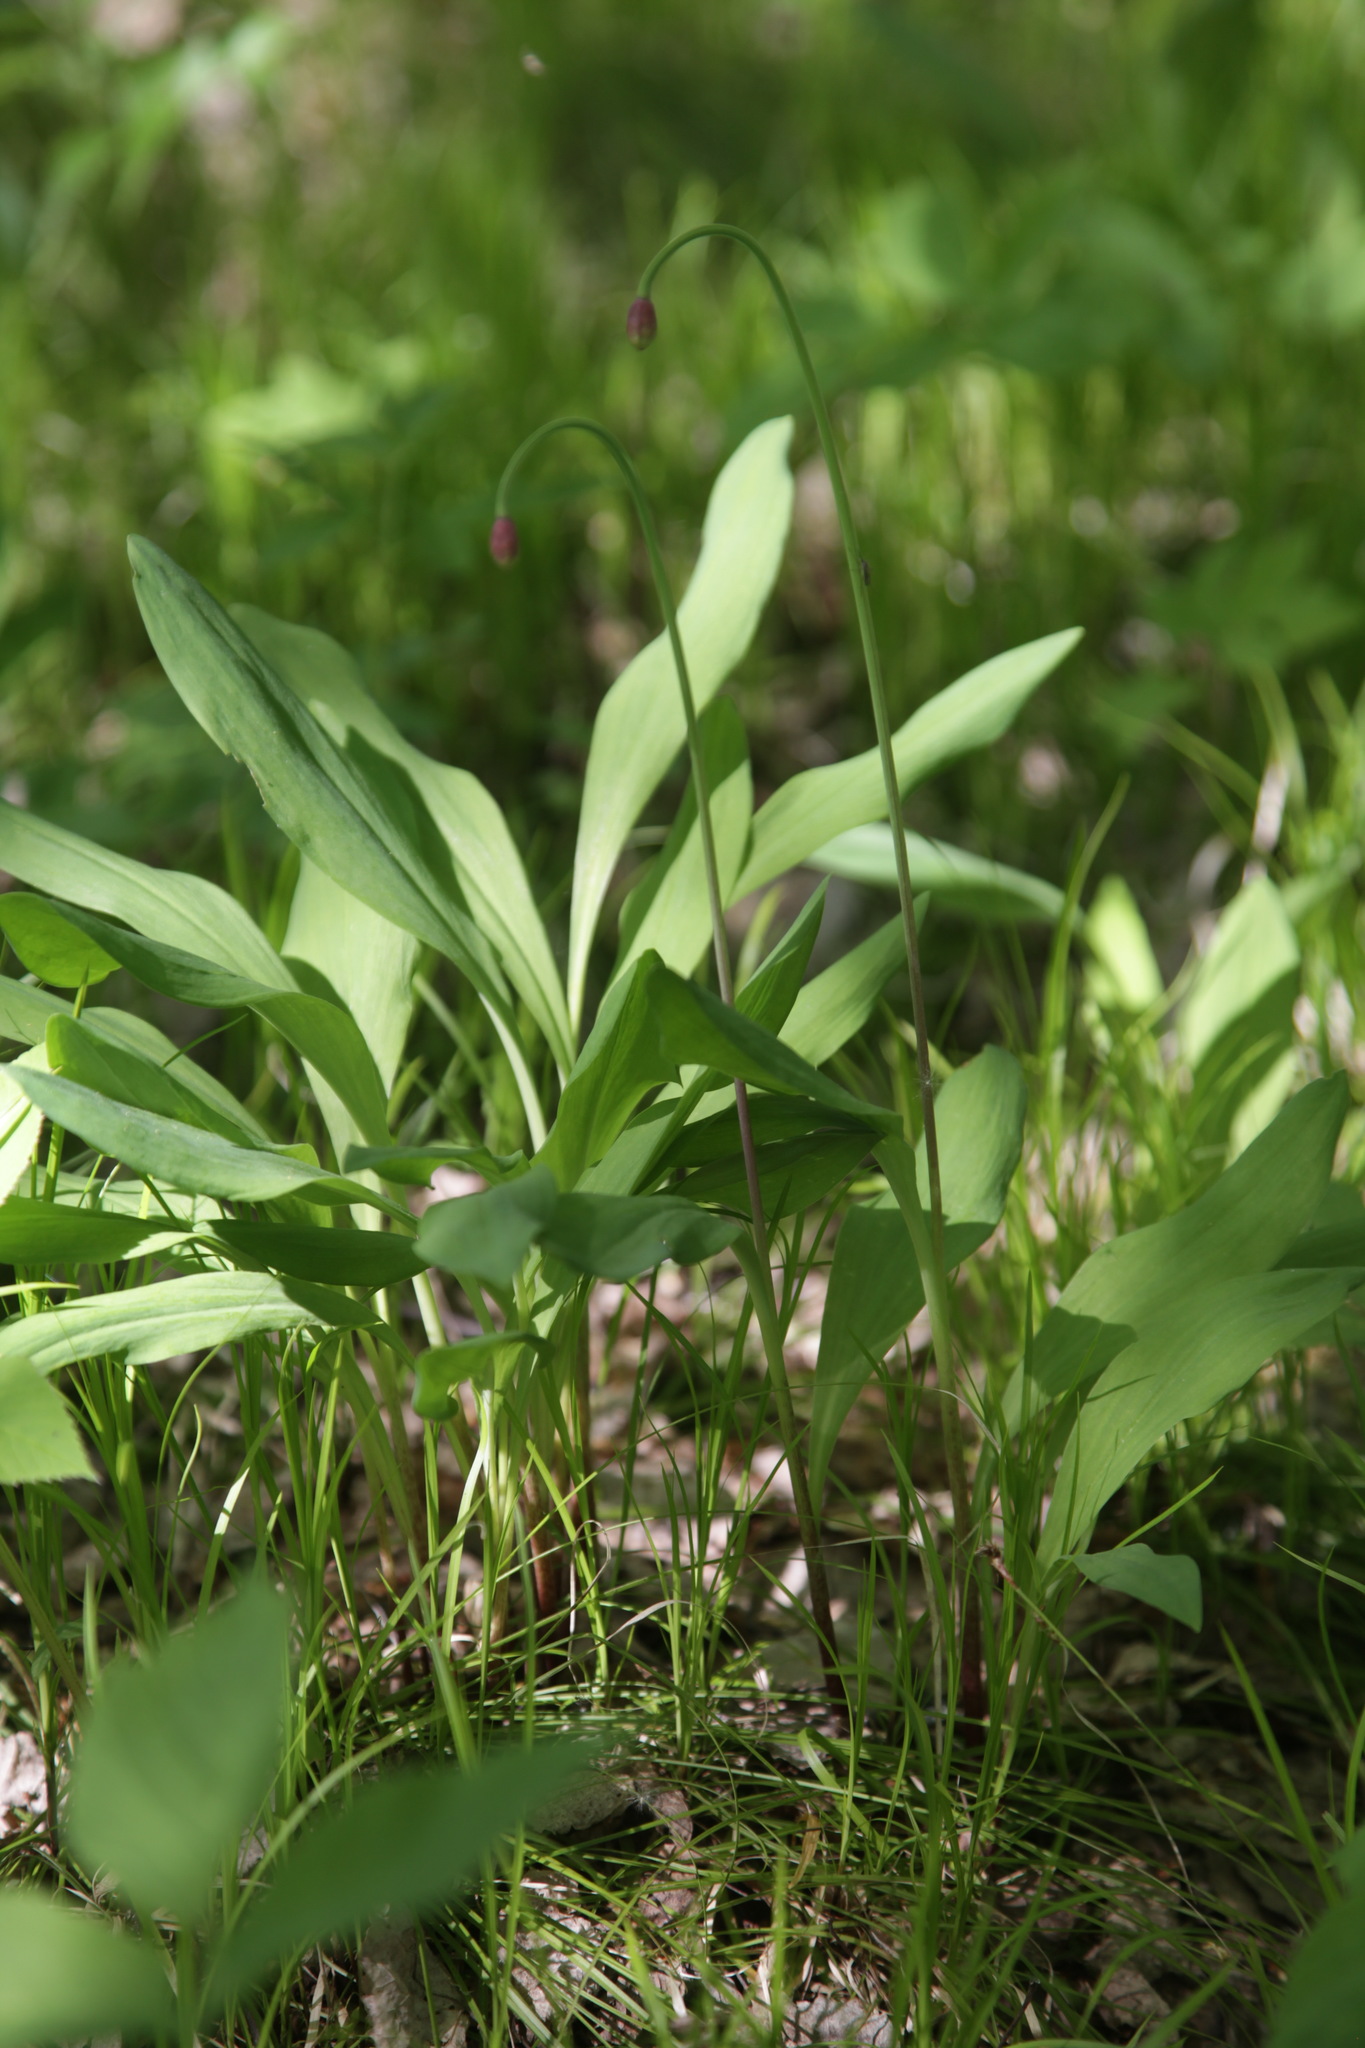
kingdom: Plantae
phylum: Tracheophyta
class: Liliopsida
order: Asparagales
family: Amaryllidaceae
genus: Allium
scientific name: Allium microdictyon
